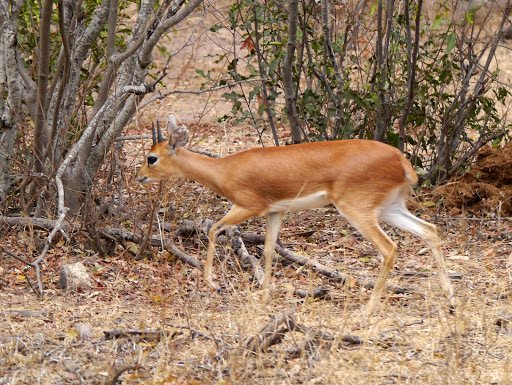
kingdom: Animalia
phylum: Chordata
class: Mammalia
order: Artiodactyla
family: Bovidae
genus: Raphicerus
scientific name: Raphicerus campestris
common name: Steenbok
